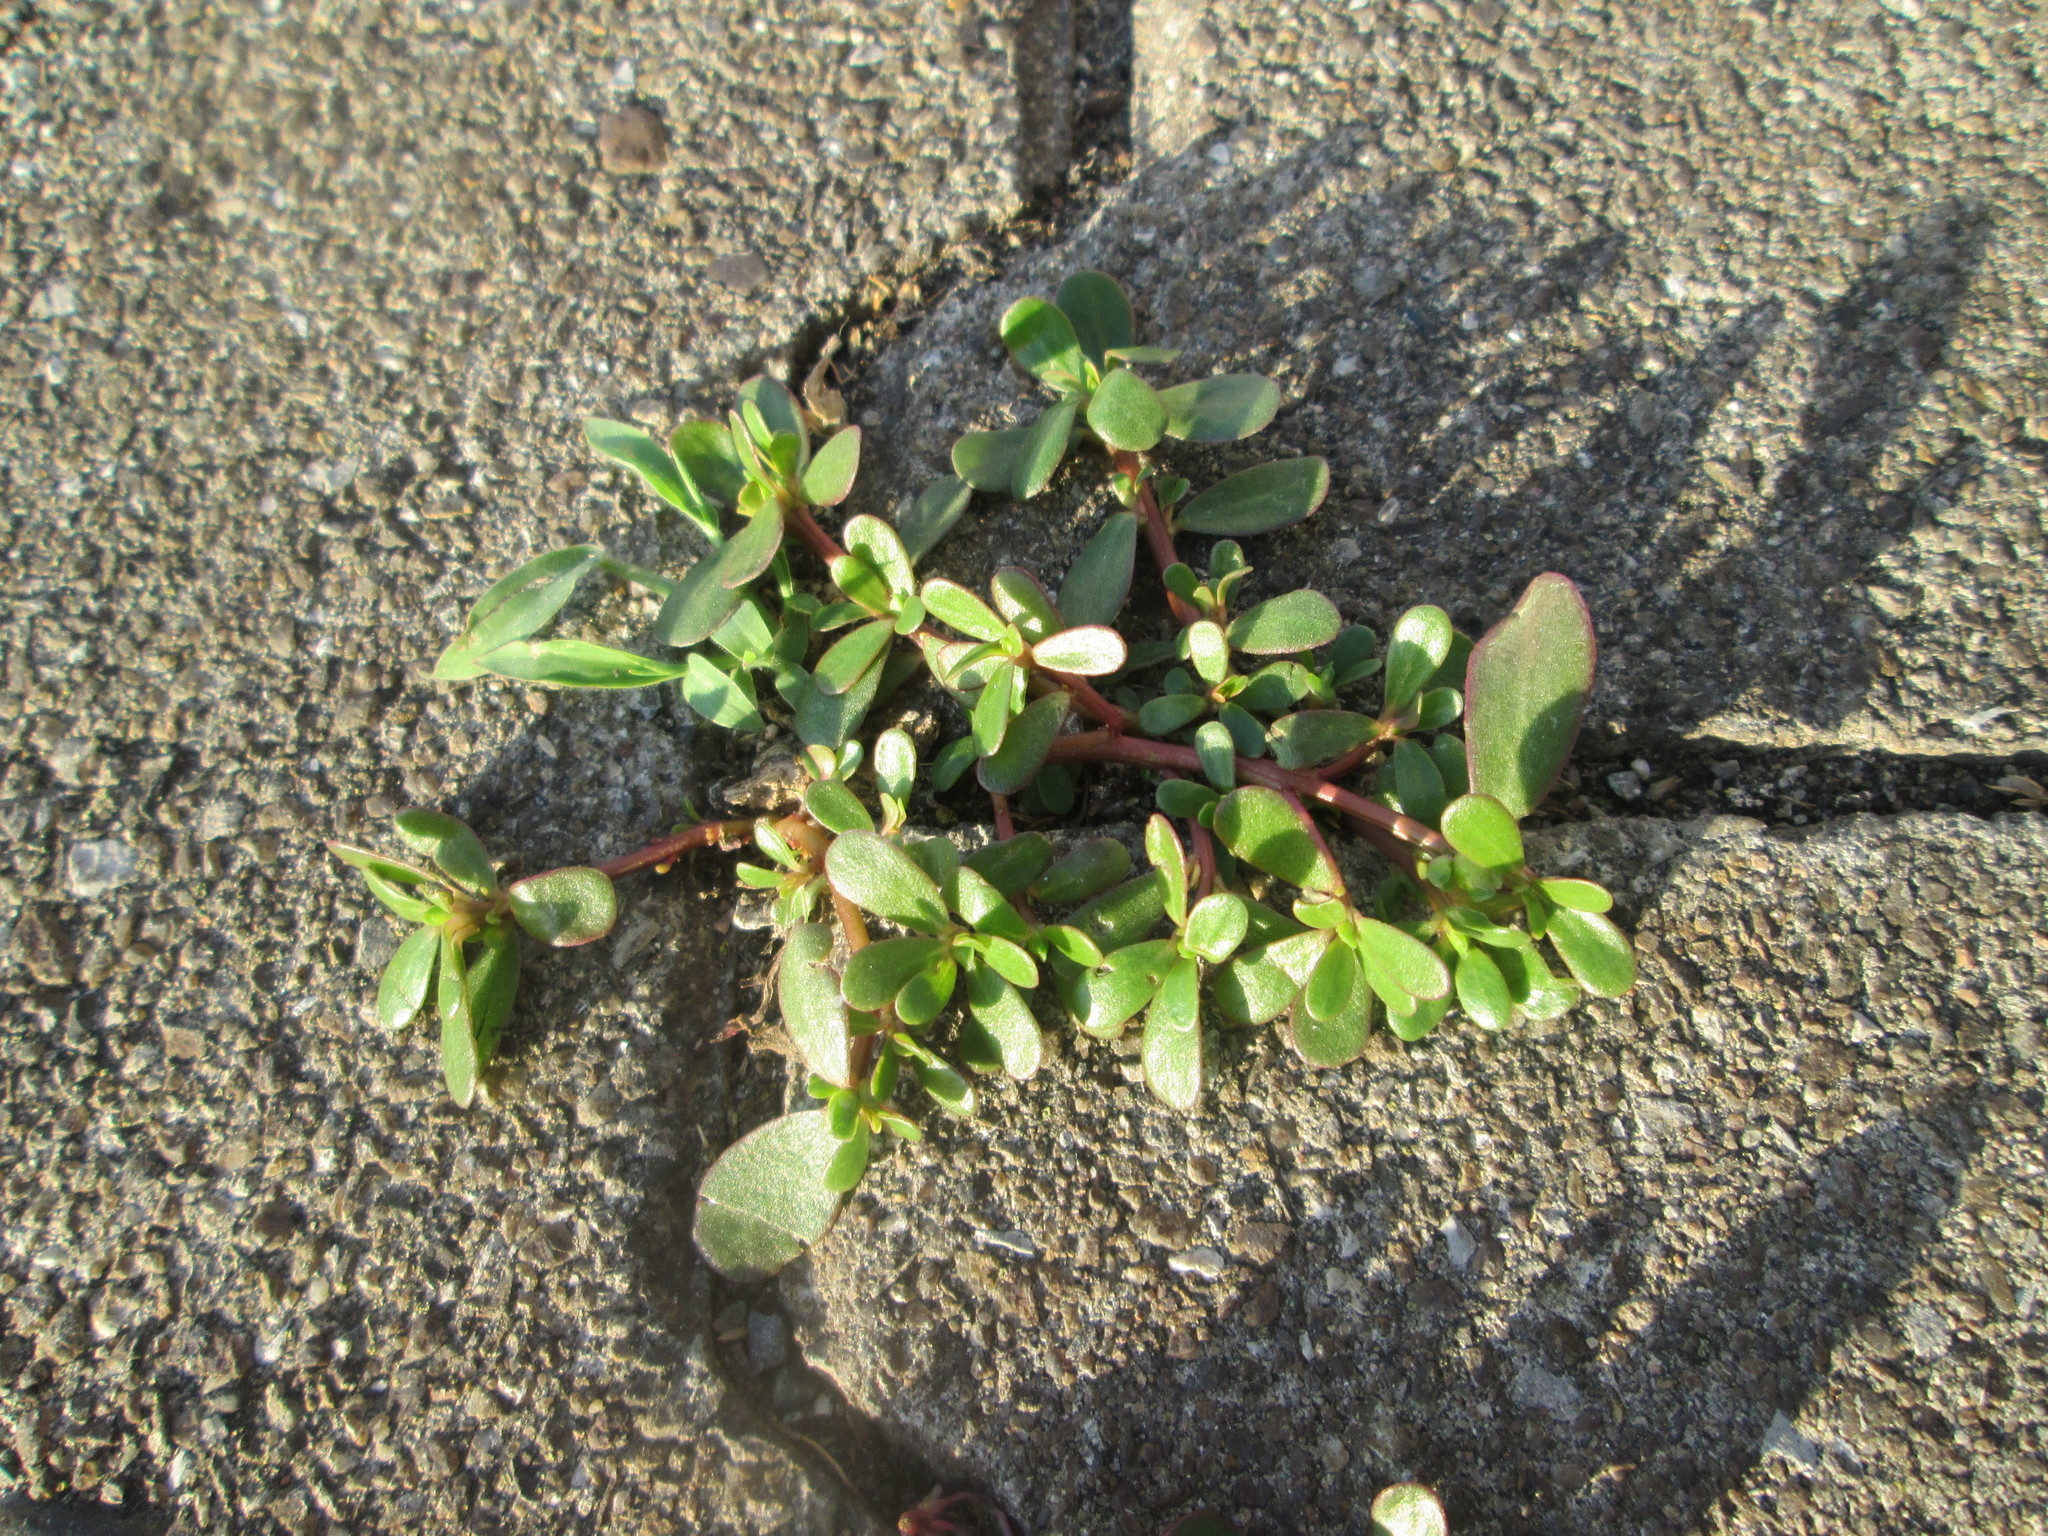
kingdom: Plantae
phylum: Tracheophyta
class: Magnoliopsida
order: Caryophyllales
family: Portulacaceae
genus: Portulaca
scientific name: Portulaca oleracea
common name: Common purslane
